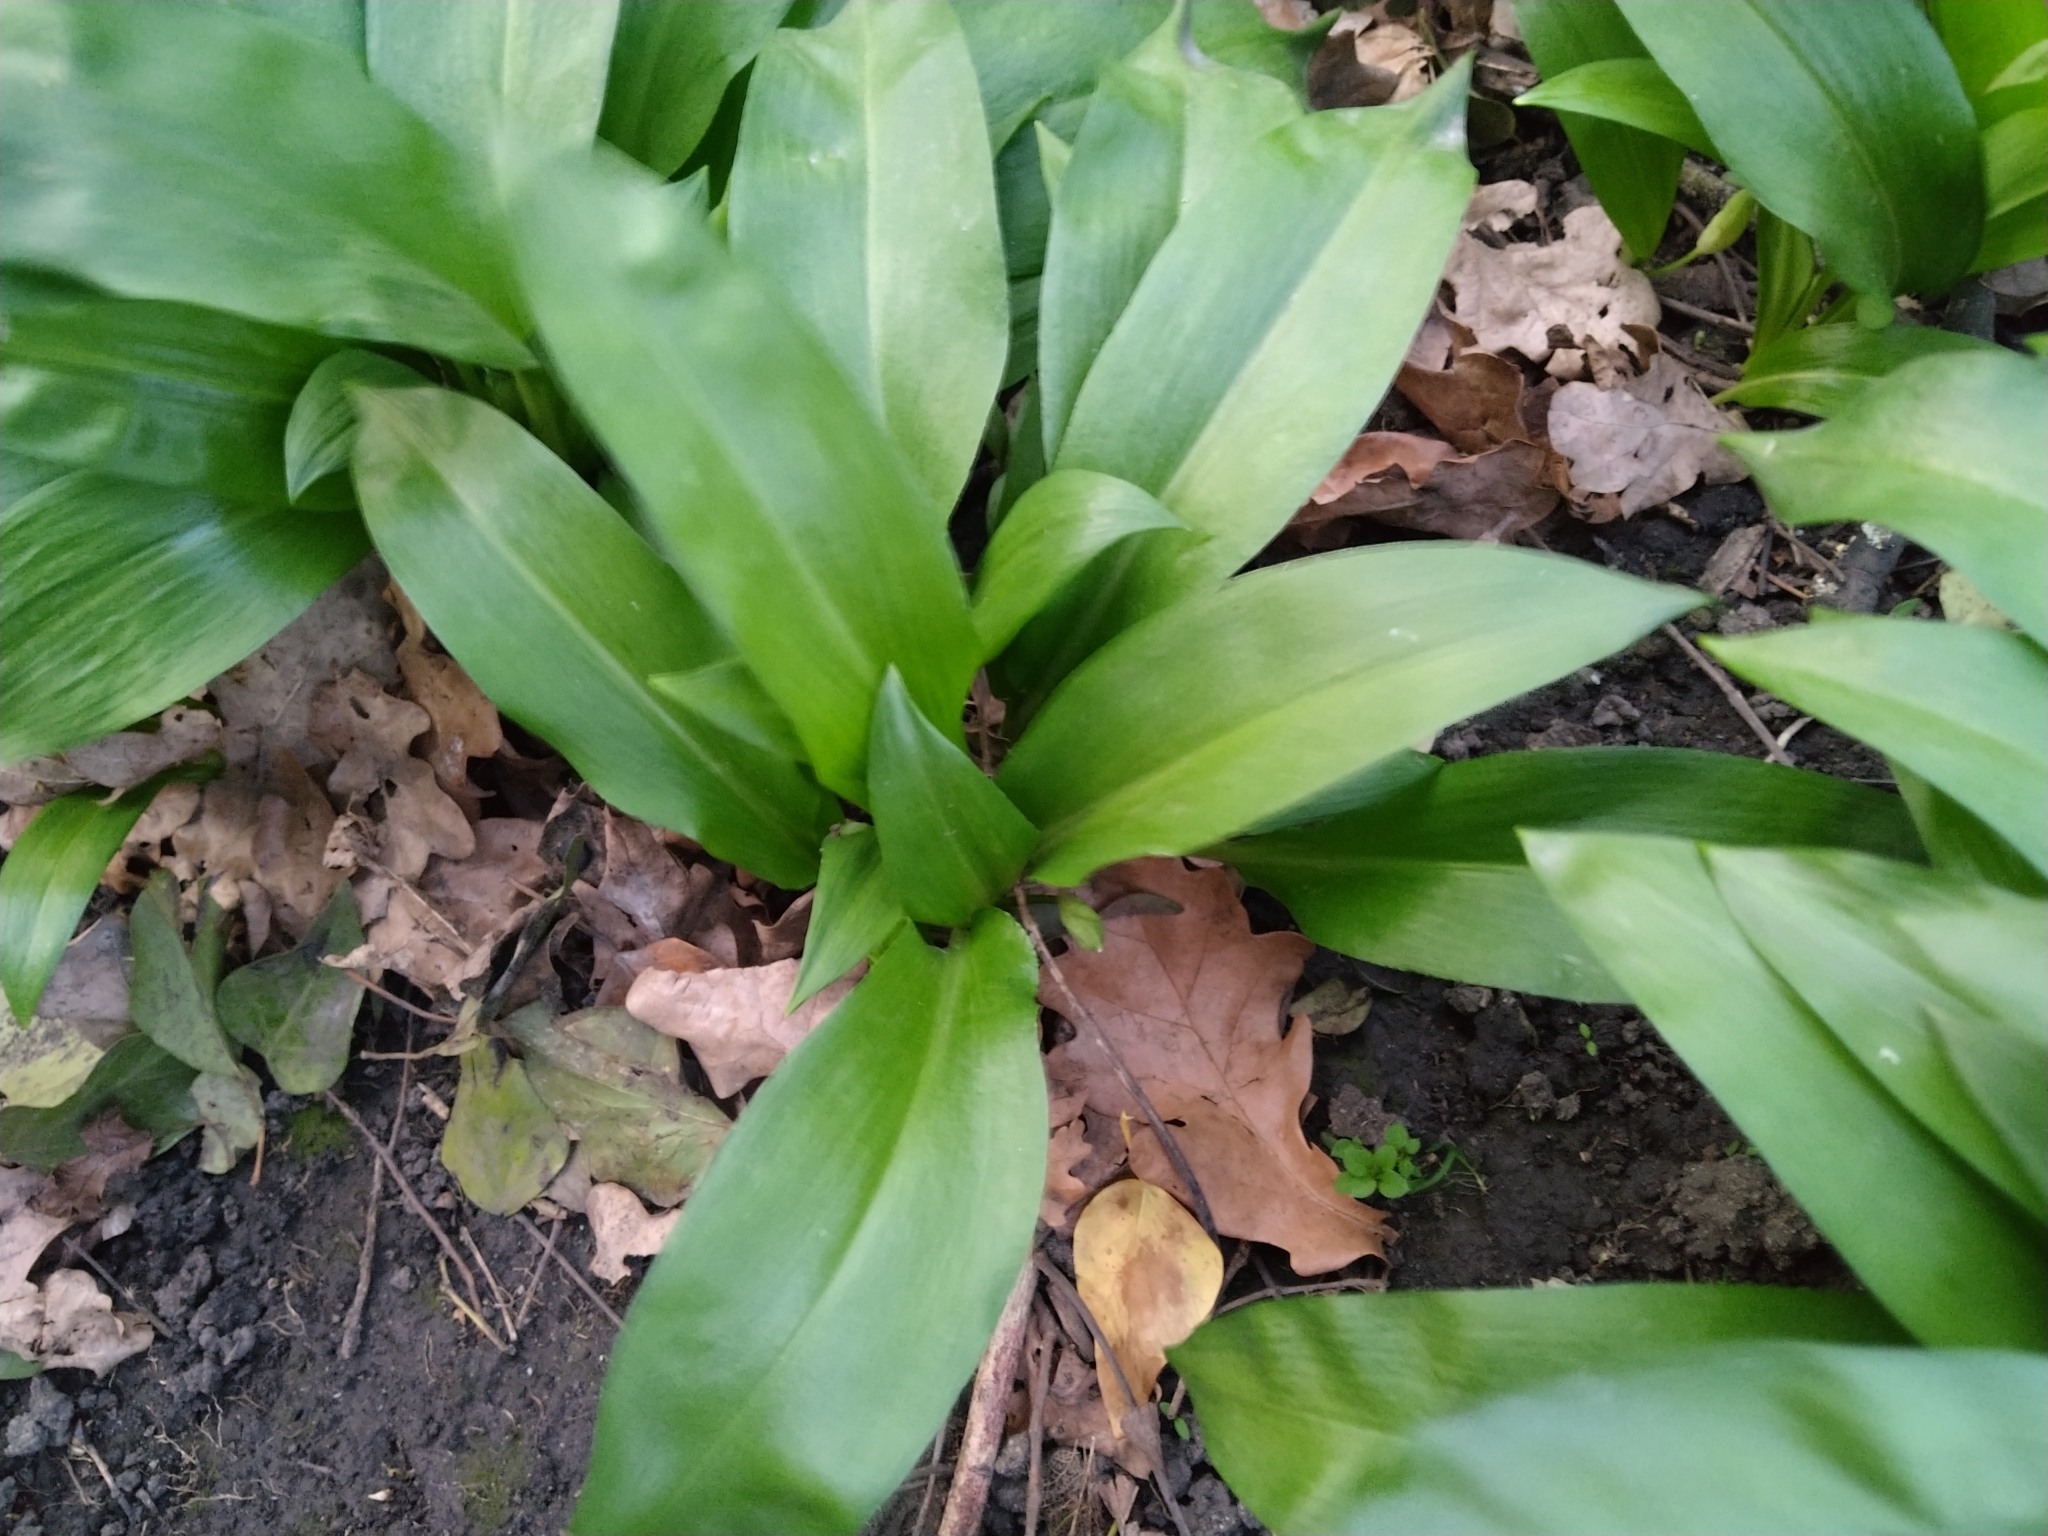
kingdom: Plantae
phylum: Tracheophyta
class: Liliopsida
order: Asparagales
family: Amaryllidaceae
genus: Allium
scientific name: Allium ursinum
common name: Ramsons
